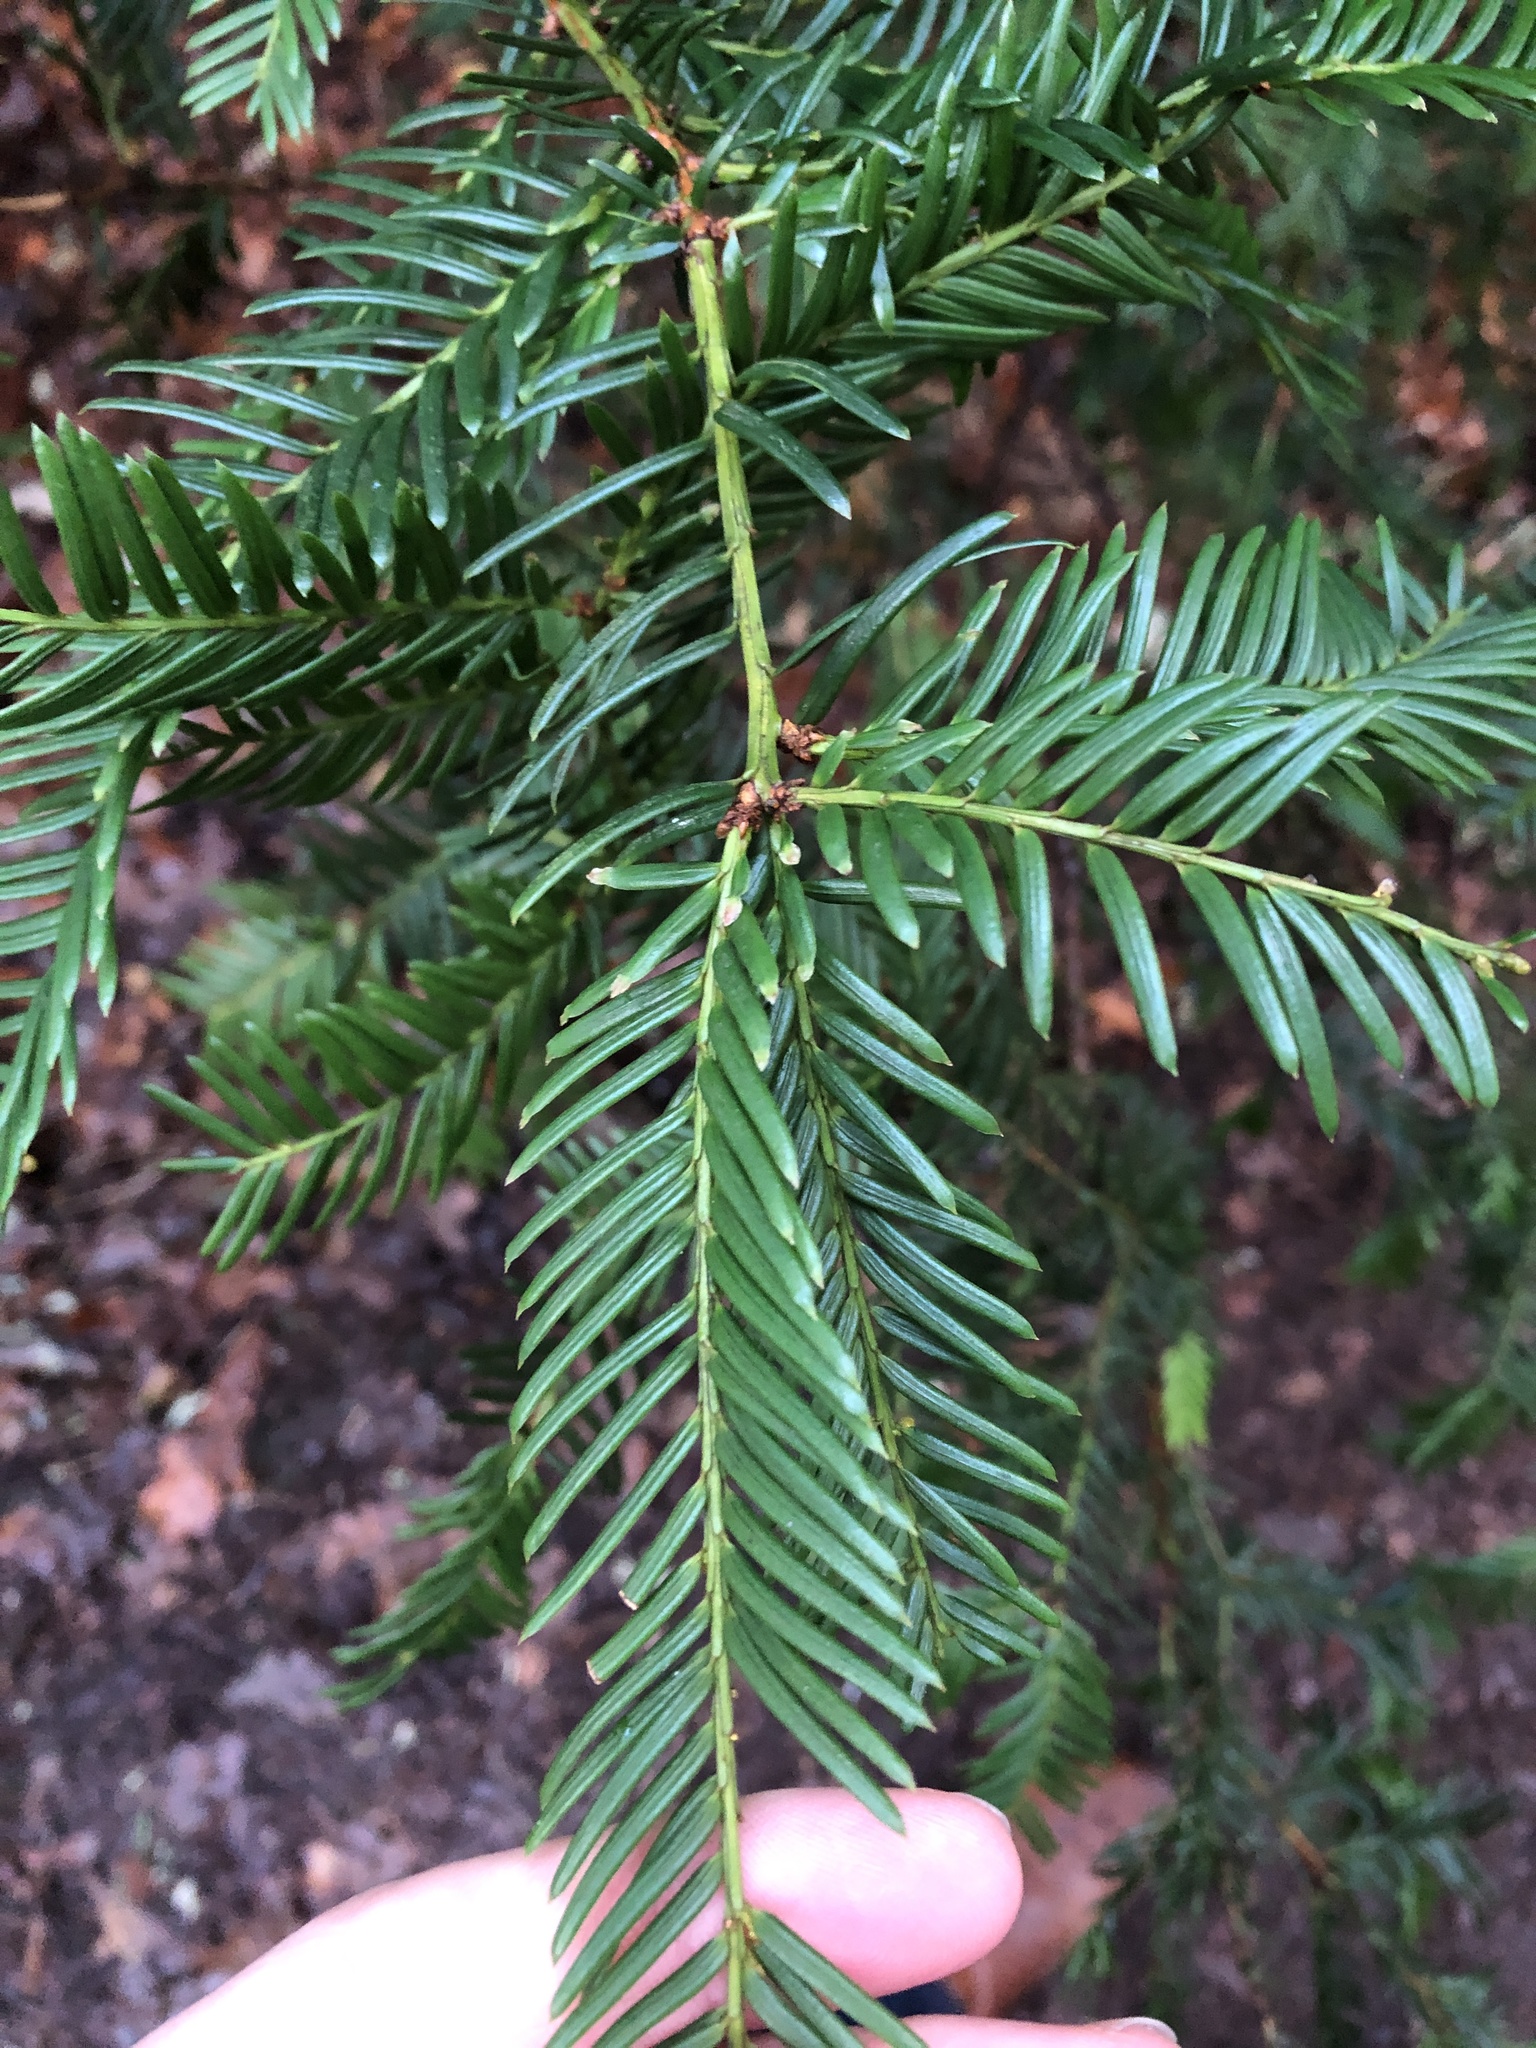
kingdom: Plantae
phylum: Tracheophyta
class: Pinopsida
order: Pinales
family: Taxaceae
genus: Taxus
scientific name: Taxus baccata
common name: Yew
